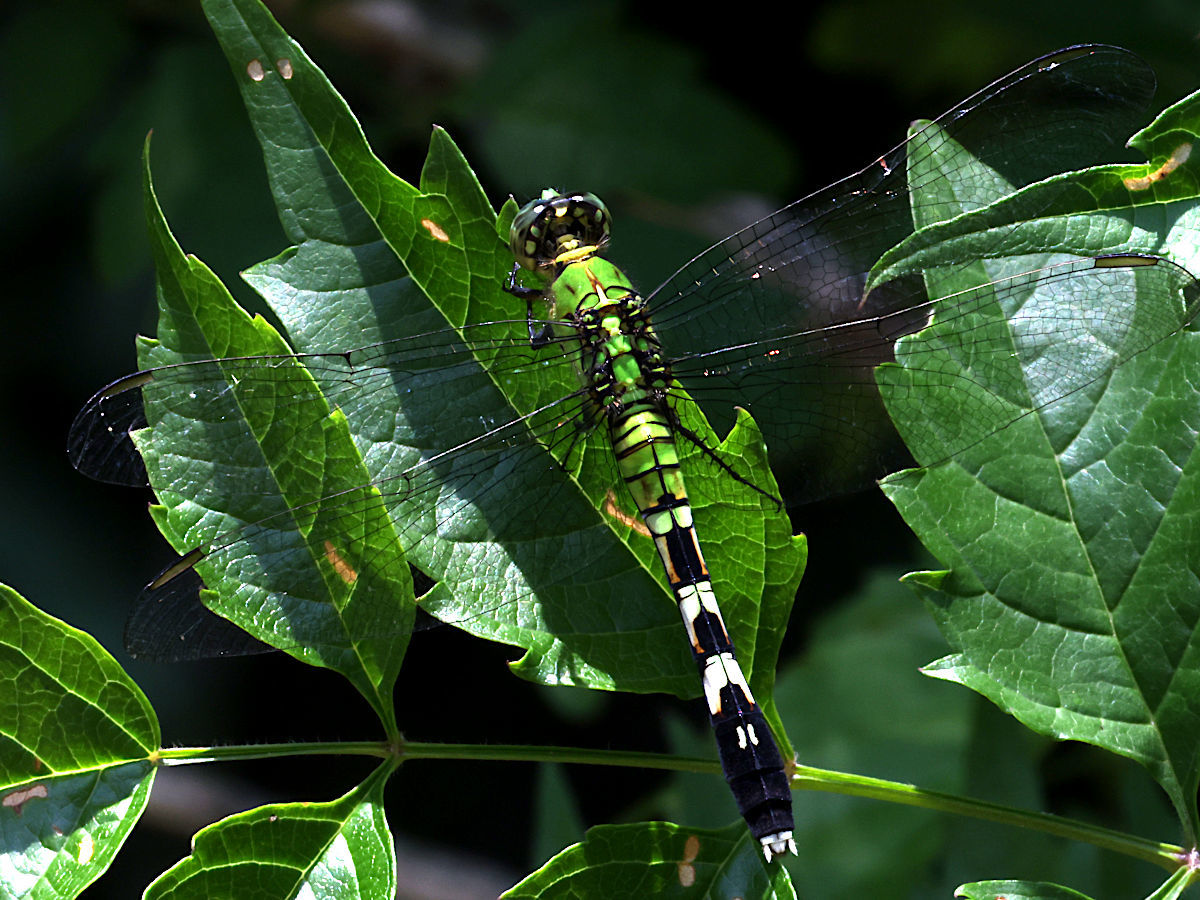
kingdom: Animalia
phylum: Arthropoda
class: Insecta
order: Odonata
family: Libellulidae
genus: Erythemis
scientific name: Erythemis simplicicollis
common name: Eastern pondhawk
